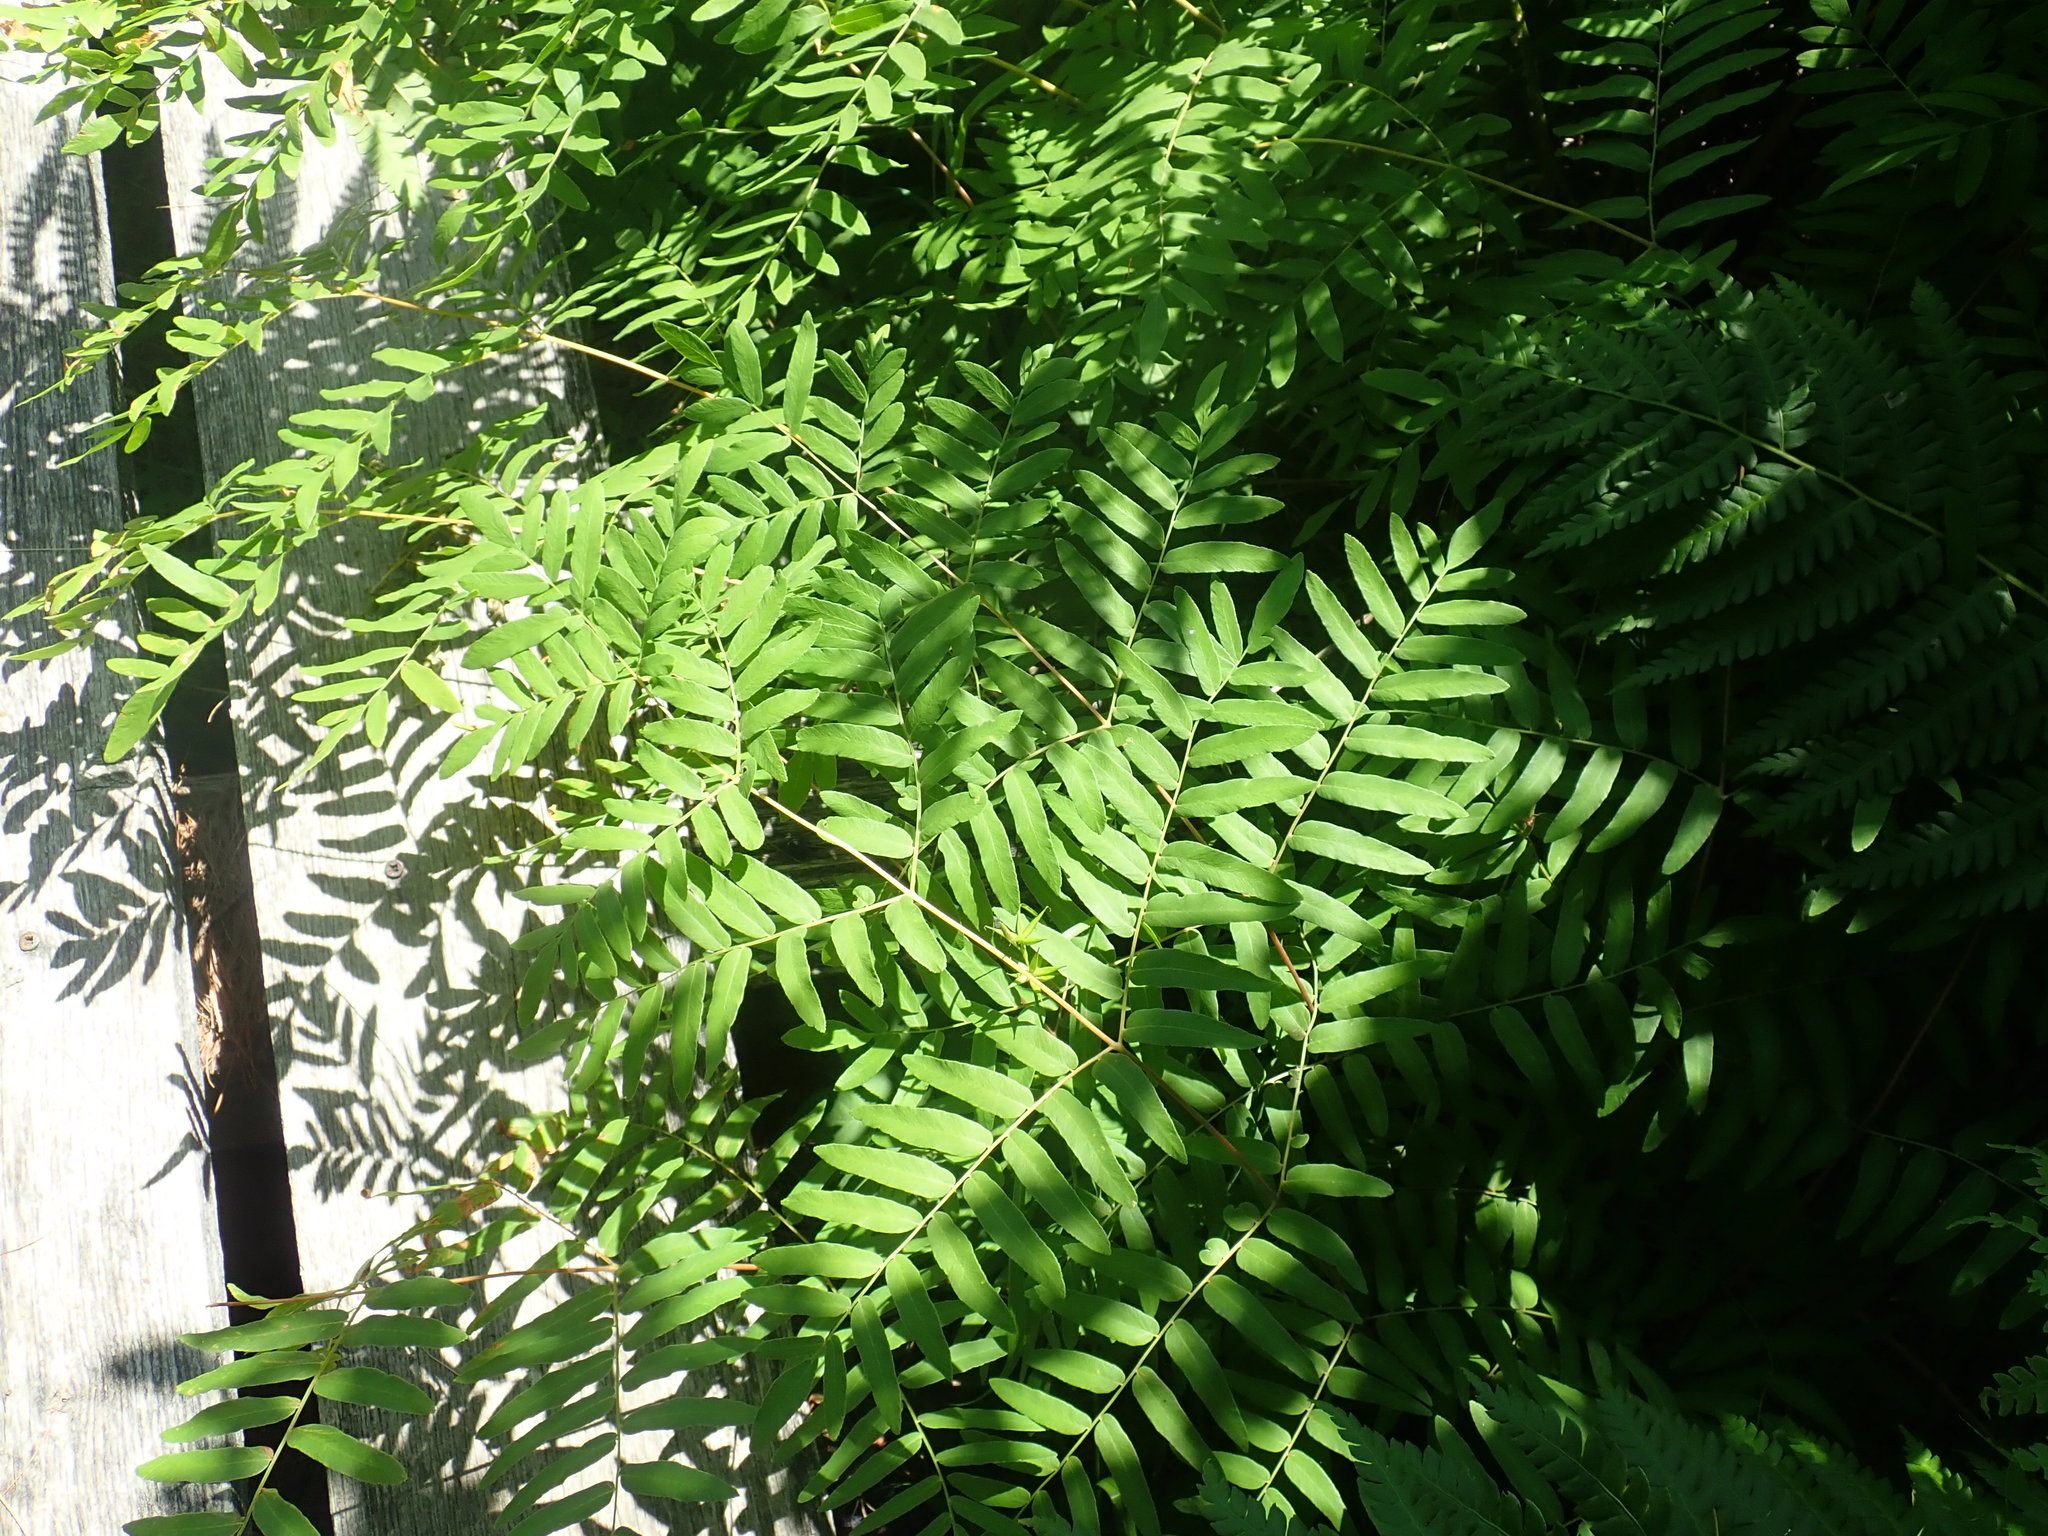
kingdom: Plantae
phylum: Tracheophyta
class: Polypodiopsida
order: Osmundales
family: Osmundaceae
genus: Osmunda
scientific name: Osmunda spectabilis
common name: American royal fern
